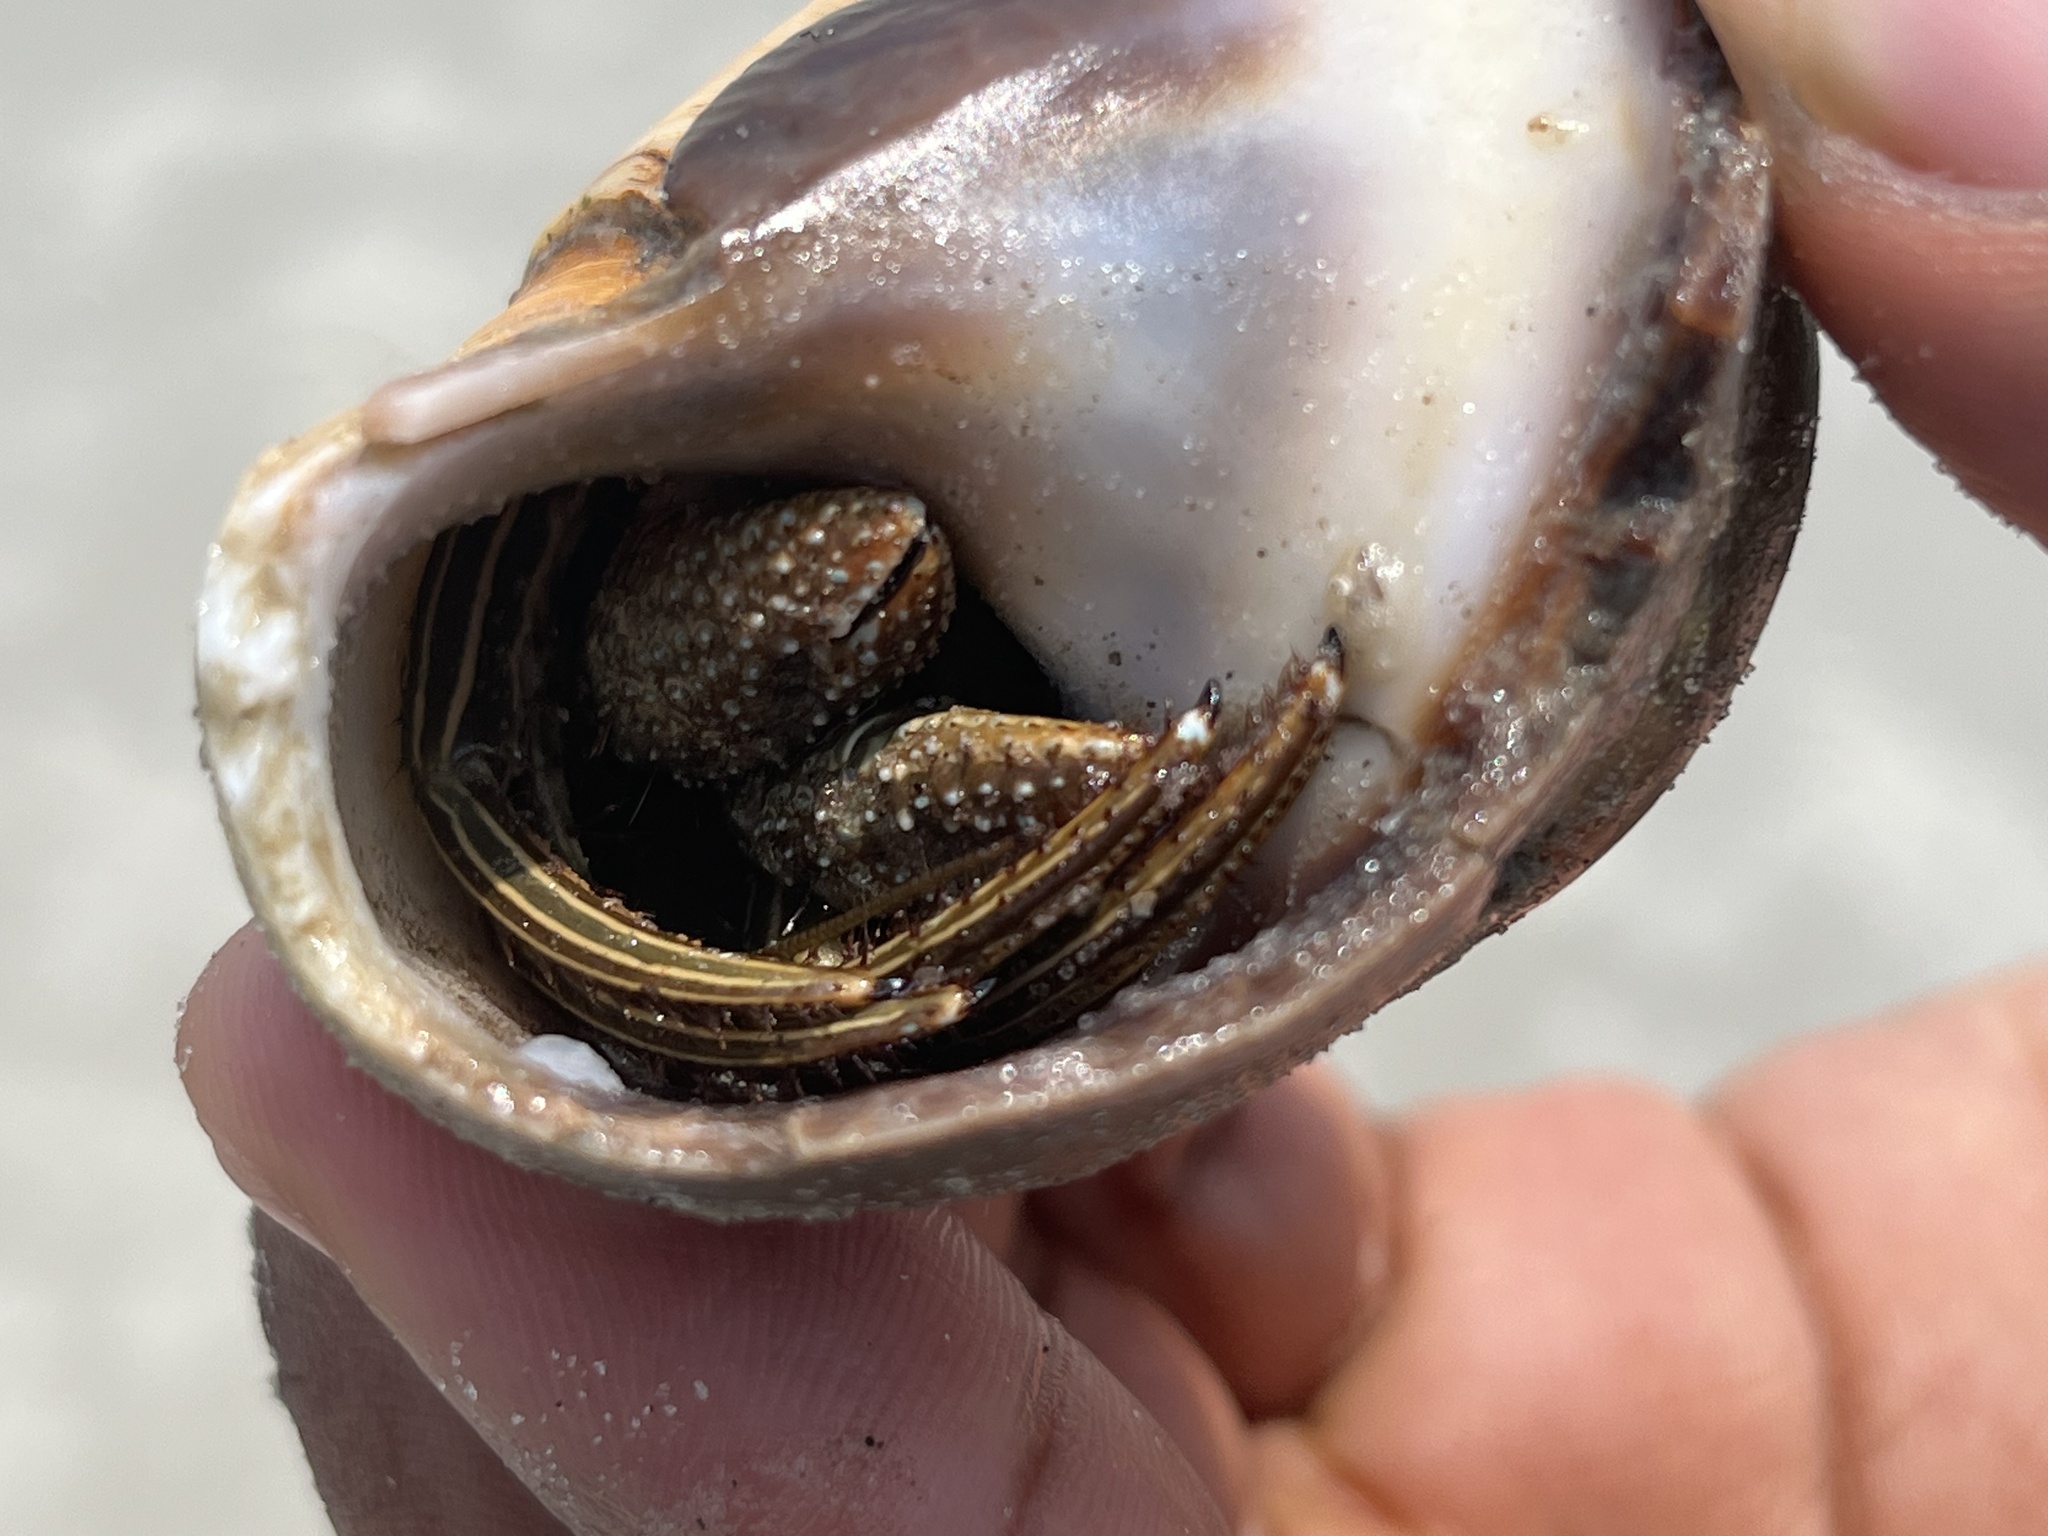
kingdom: Animalia
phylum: Arthropoda
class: Malacostraca
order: Decapoda
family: Diogenidae
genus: Clibanarius
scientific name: Clibanarius vittatus
